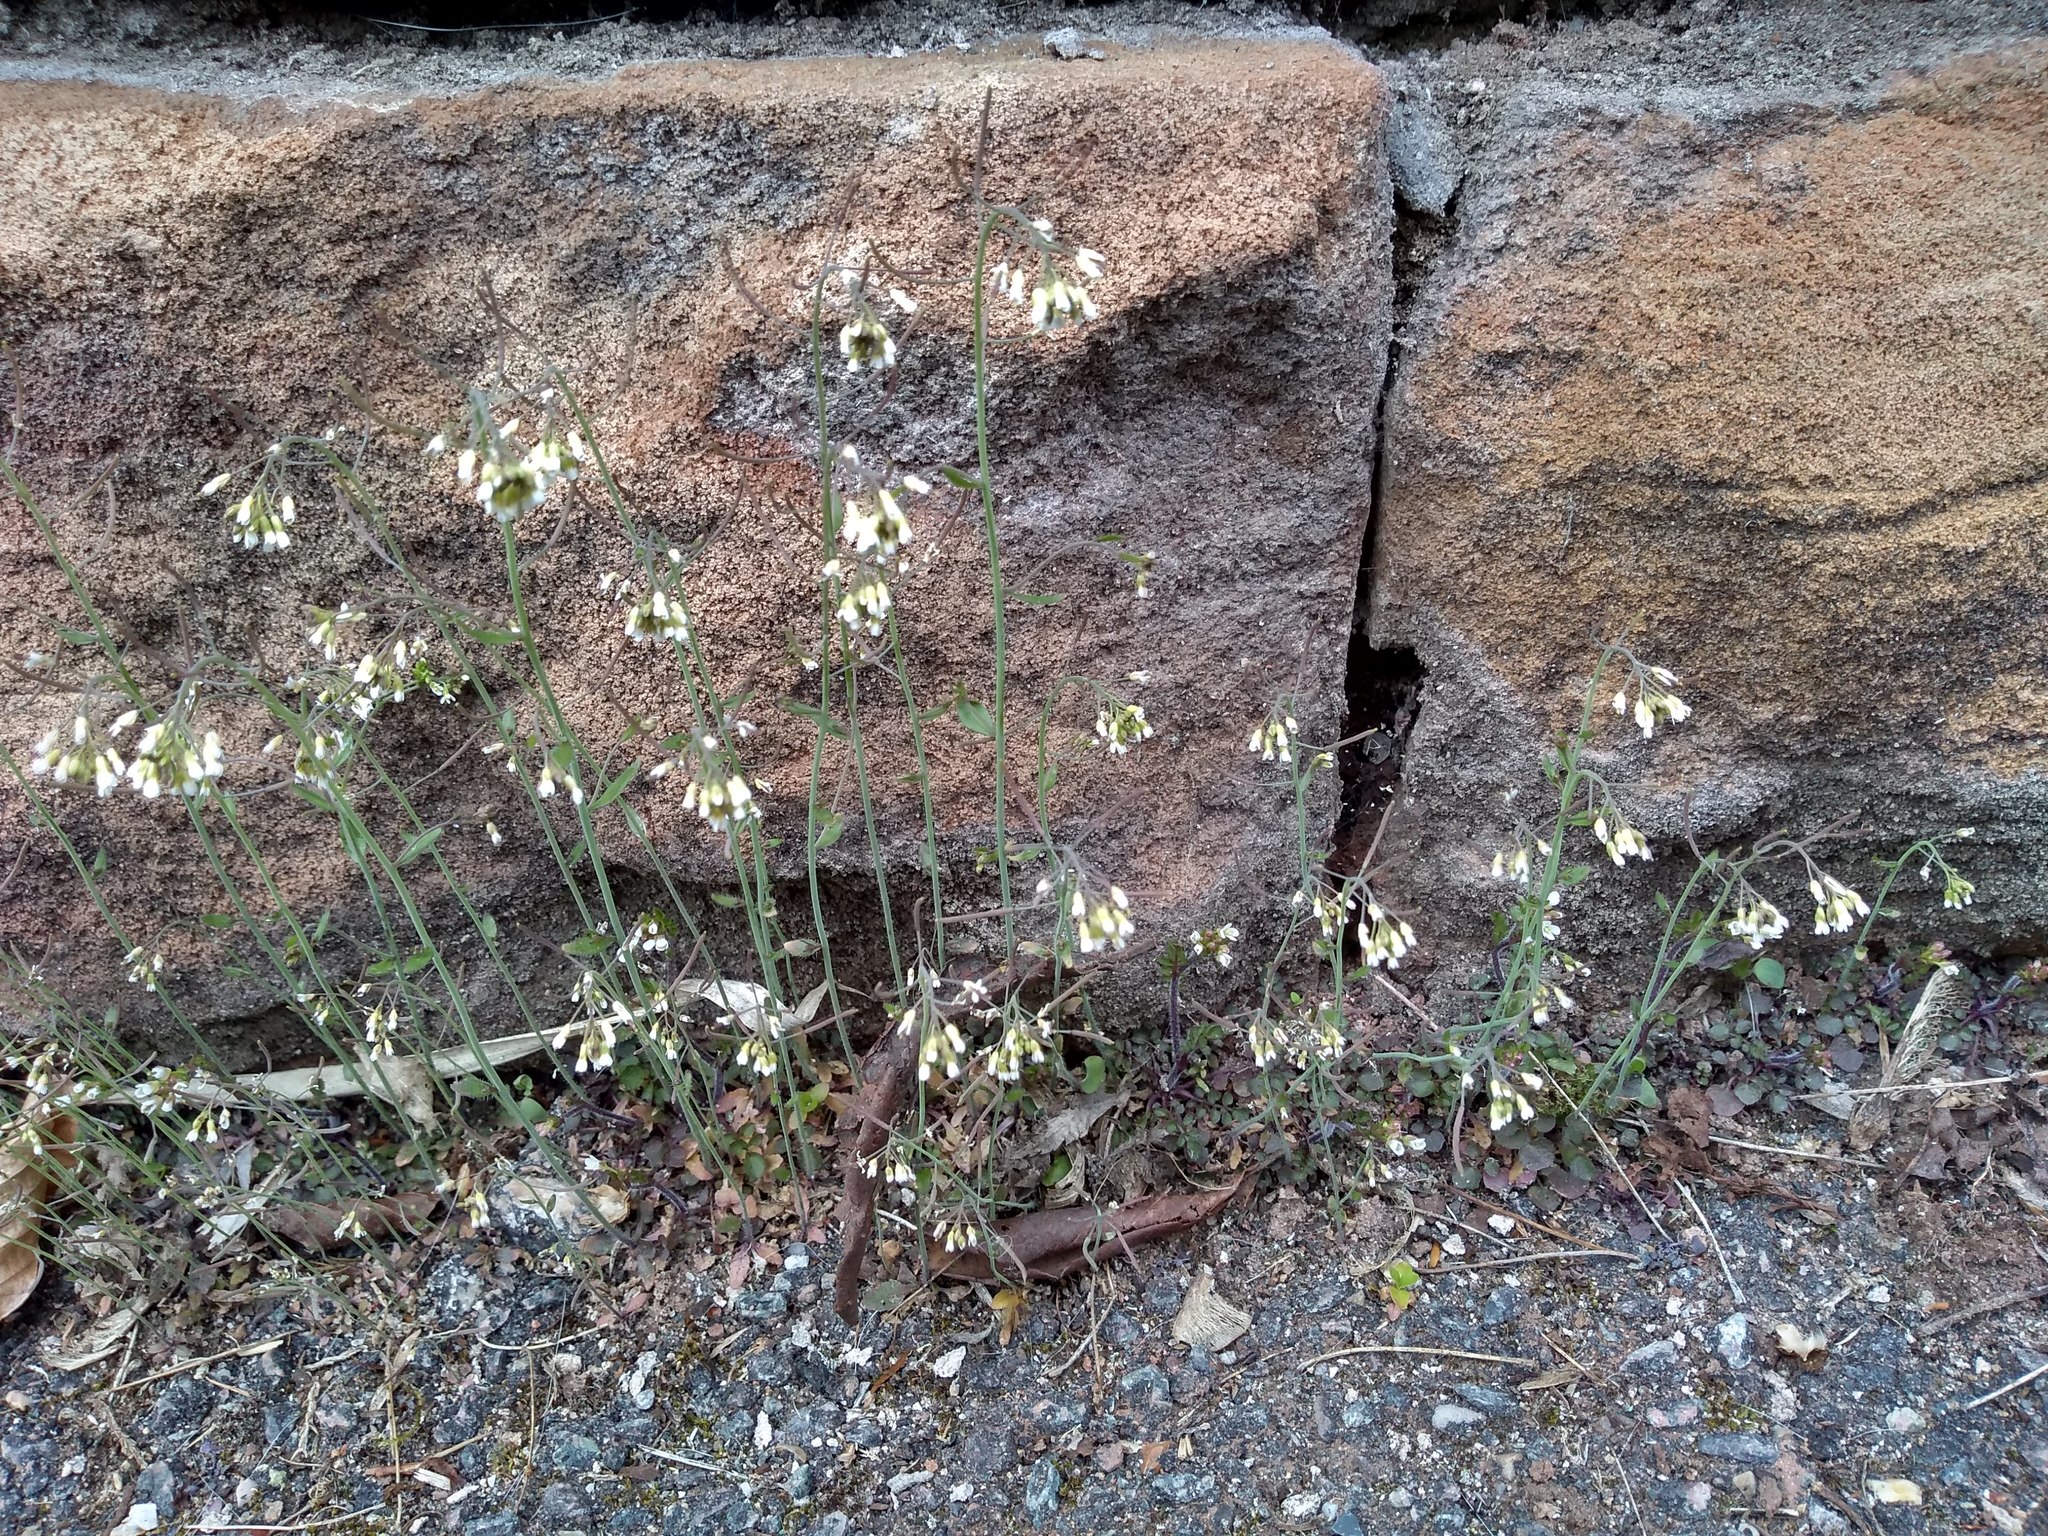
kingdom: Plantae
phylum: Tracheophyta
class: Magnoliopsida
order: Brassicales
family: Brassicaceae
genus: Arabidopsis
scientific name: Arabidopsis thaliana
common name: Thale cress
